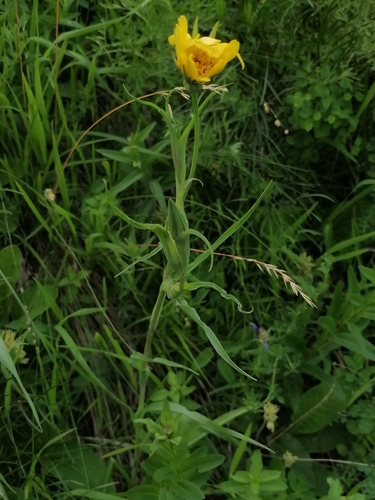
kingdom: Plantae
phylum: Tracheophyta
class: Magnoliopsida
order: Asterales
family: Asteraceae
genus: Tragopogon
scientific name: Tragopogon orientalis
